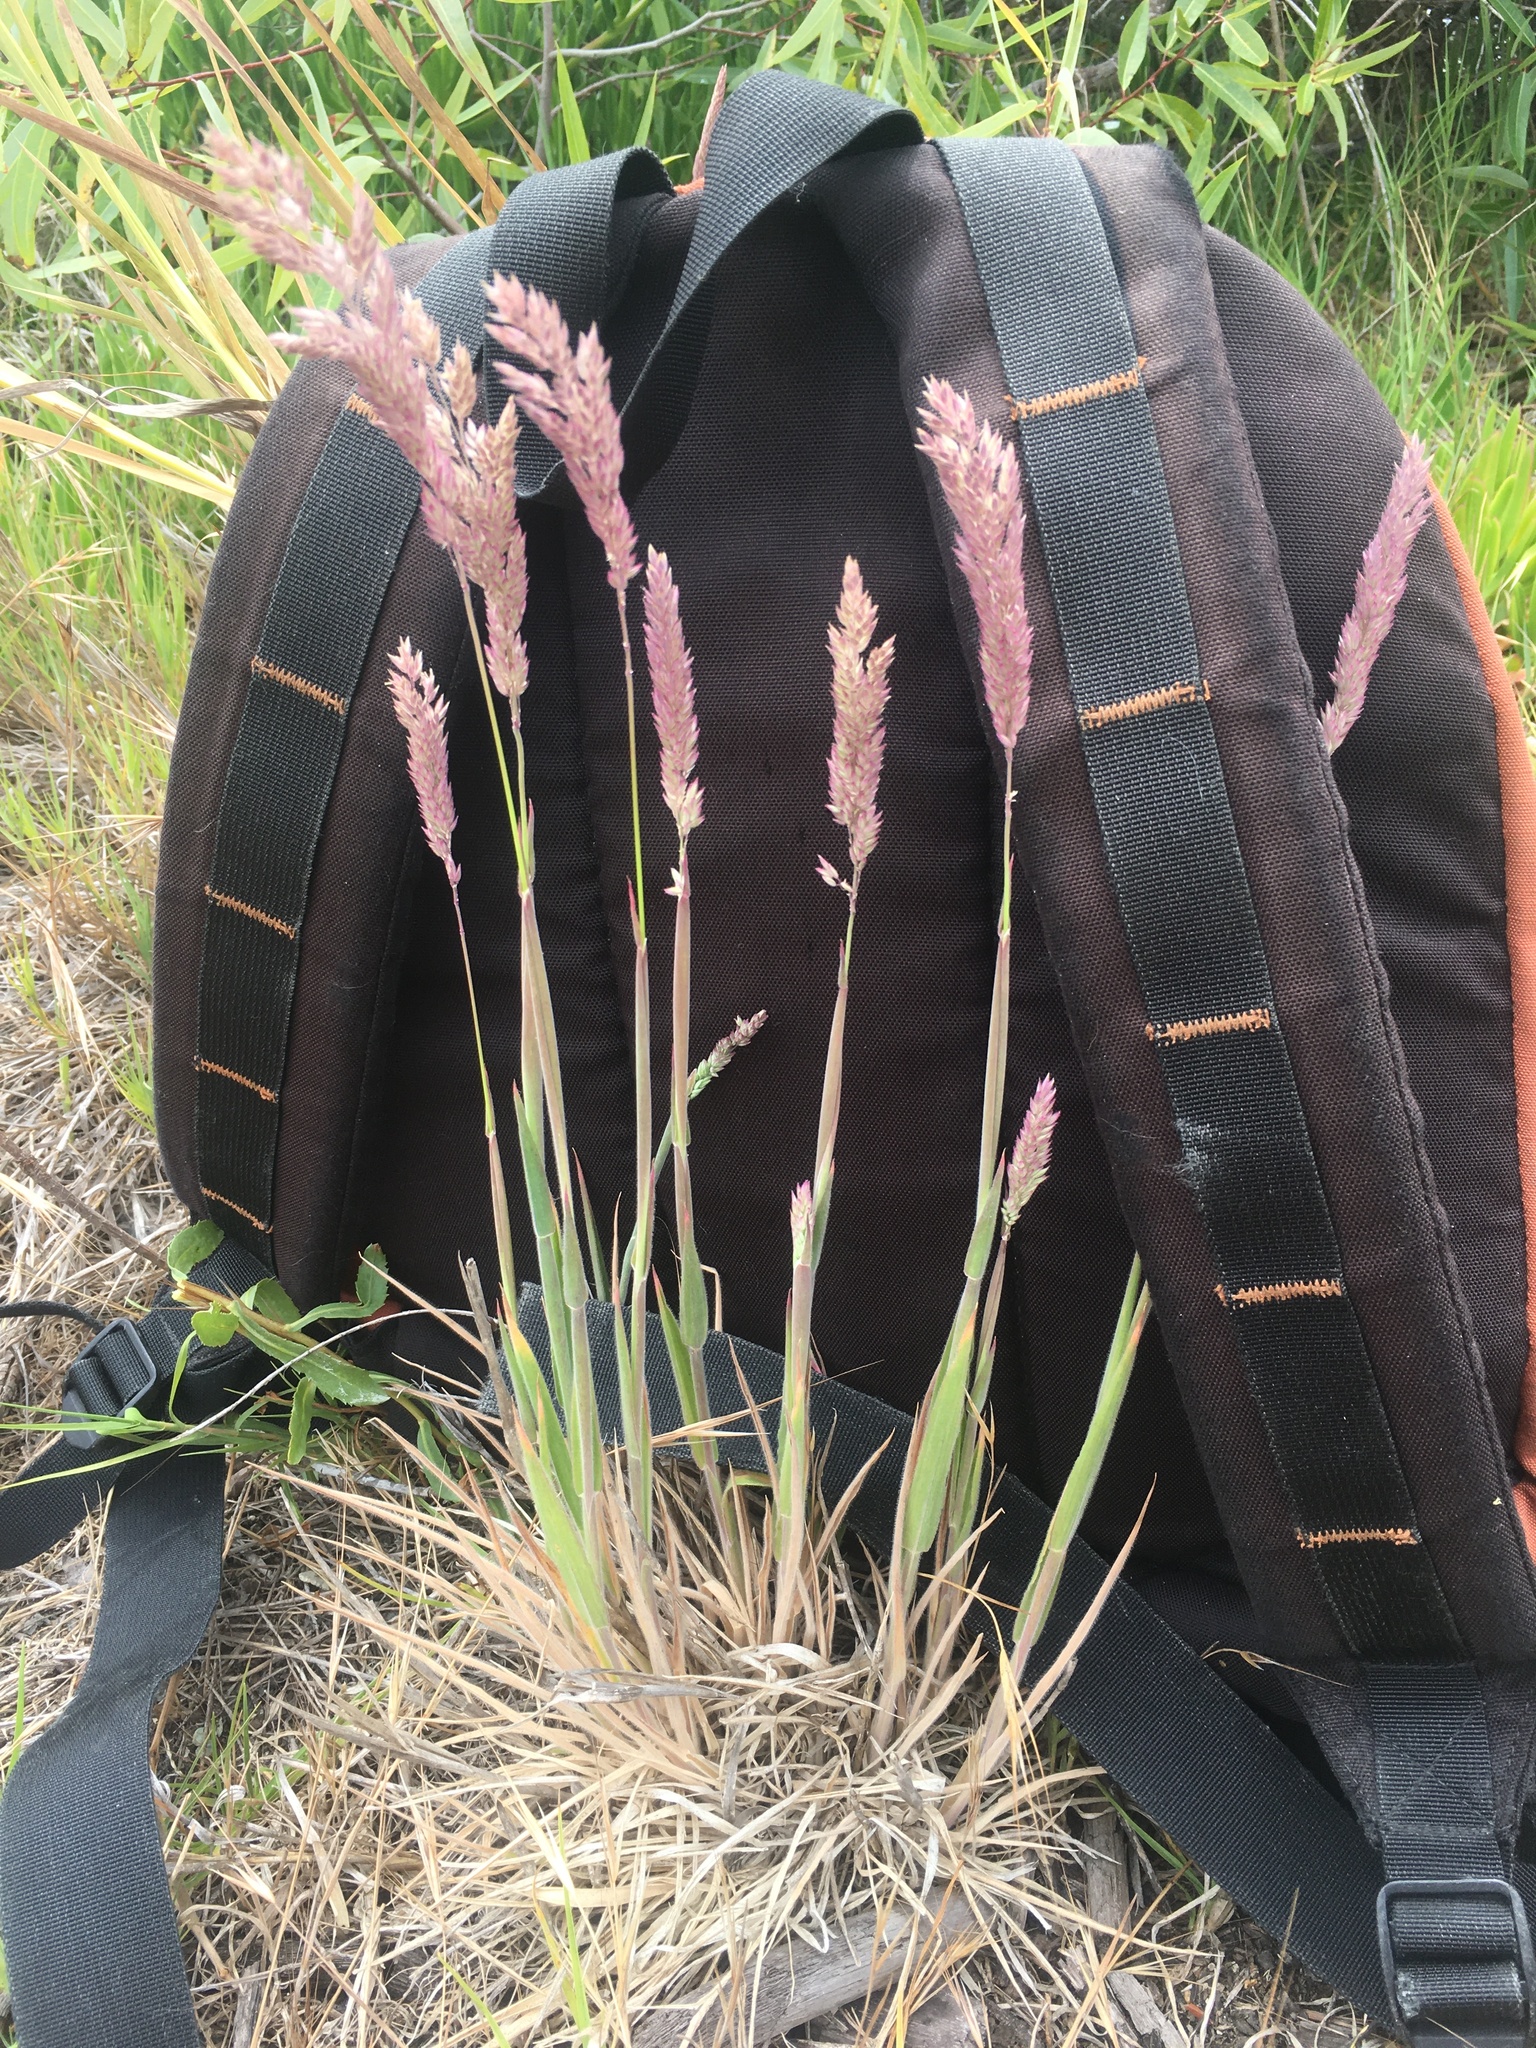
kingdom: Plantae
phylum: Tracheophyta
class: Liliopsida
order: Poales
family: Poaceae
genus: Holcus
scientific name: Holcus lanatus
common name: Yorkshire-fog
